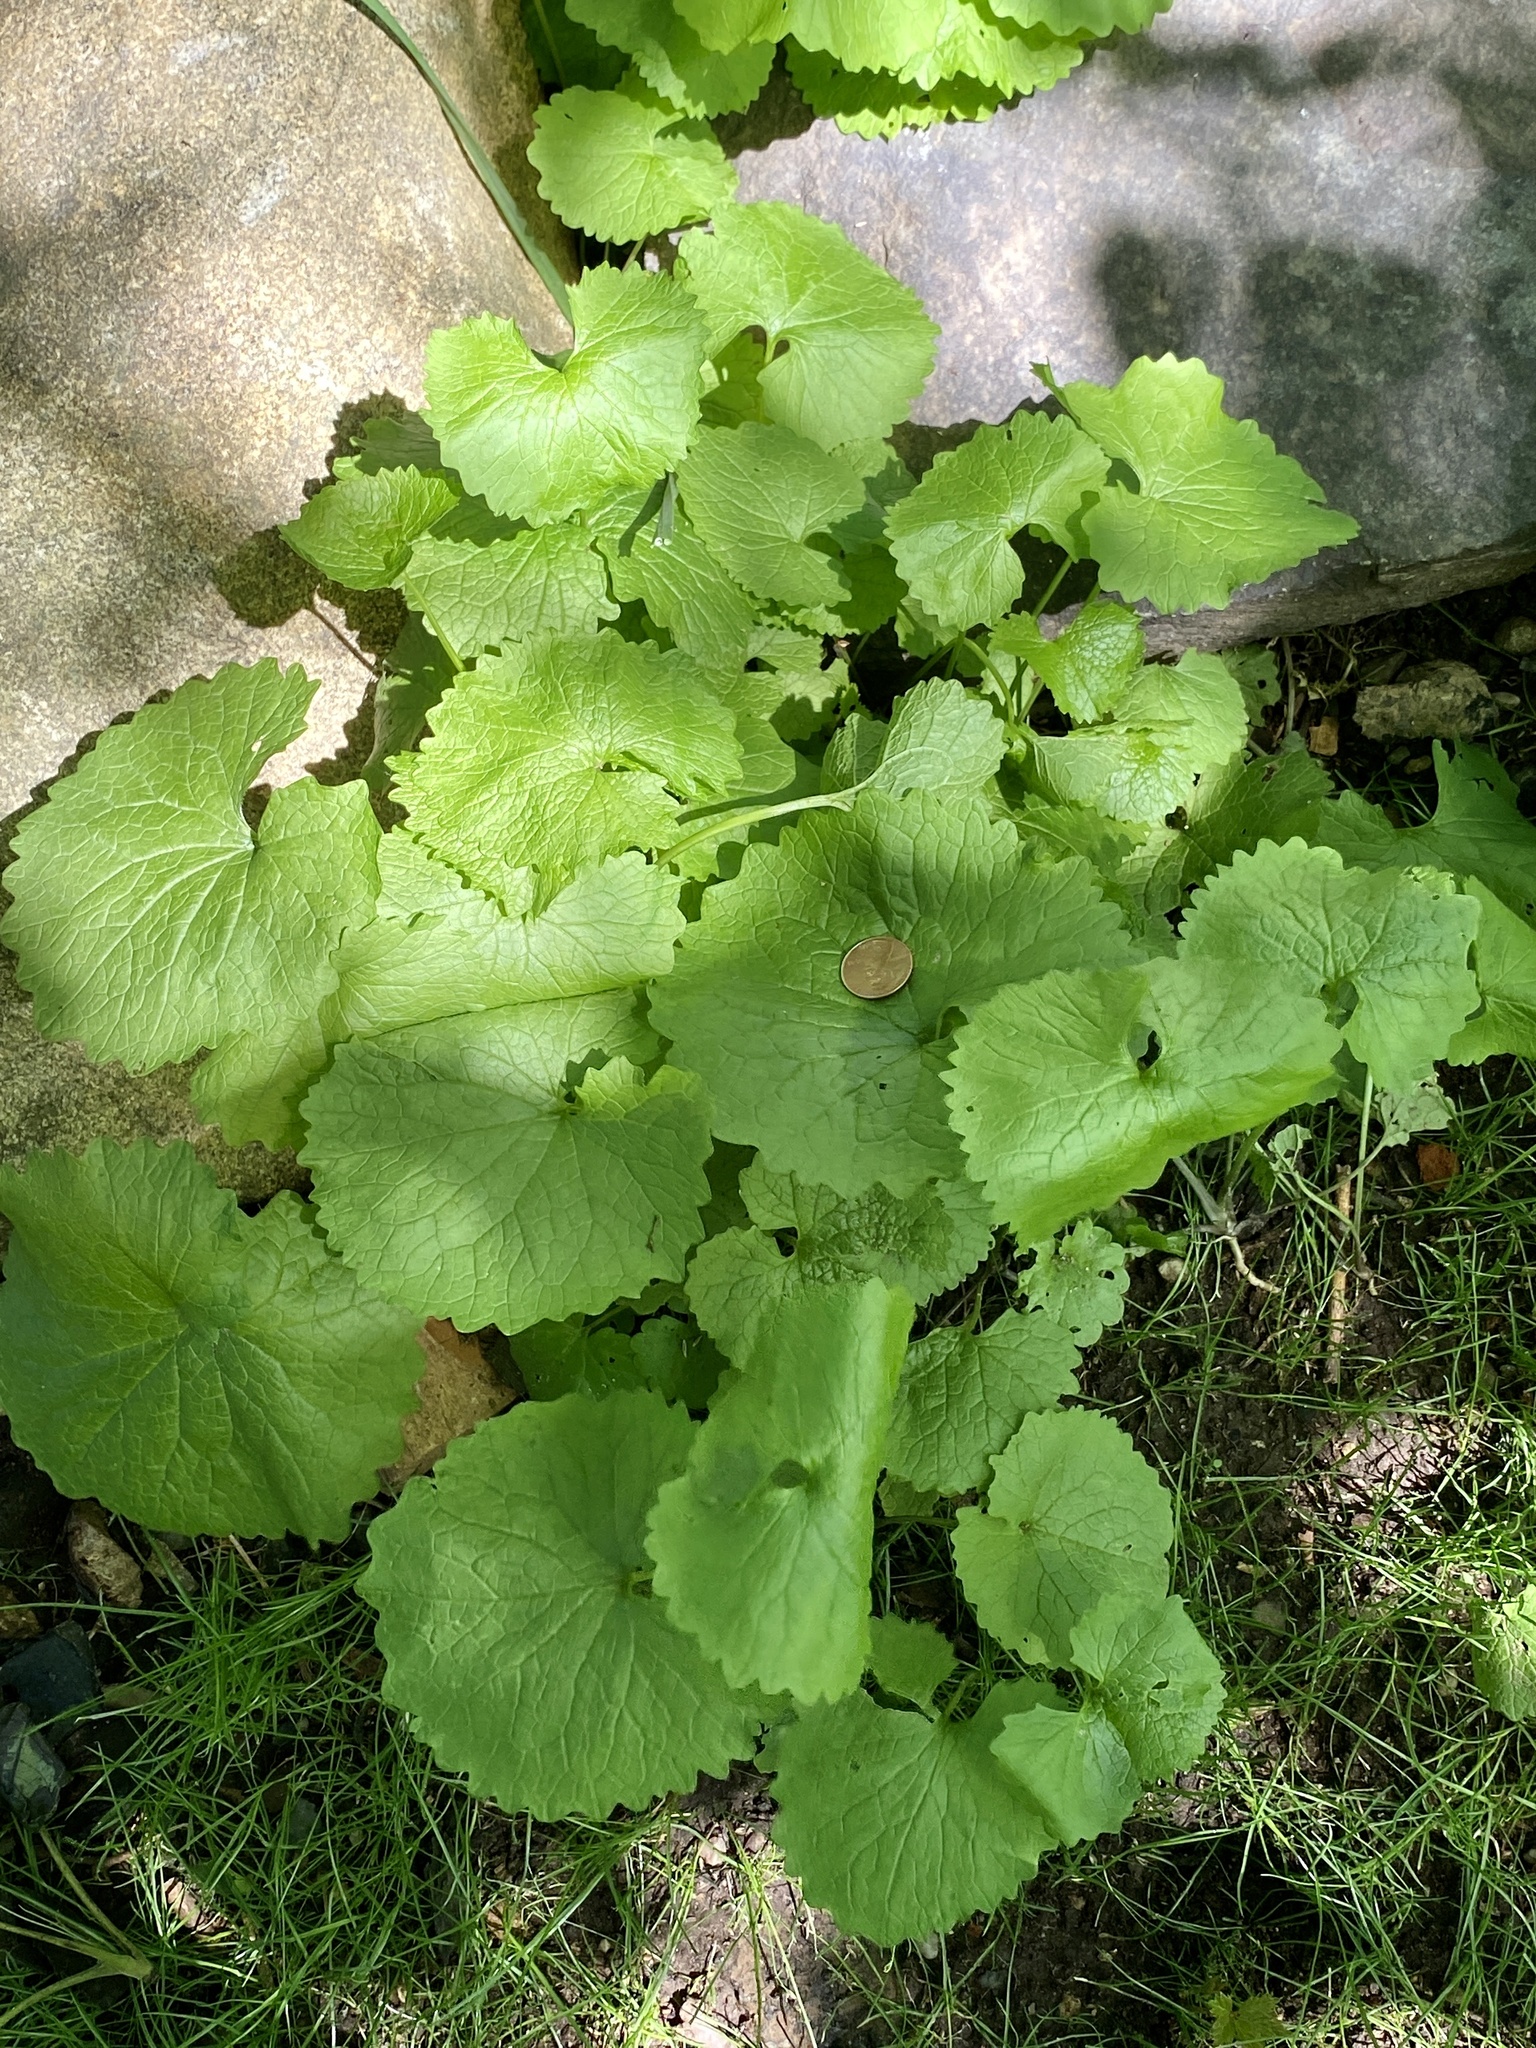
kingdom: Plantae
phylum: Tracheophyta
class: Magnoliopsida
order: Brassicales
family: Brassicaceae
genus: Alliaria
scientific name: Alliaria petiolata
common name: Garlic mustard
